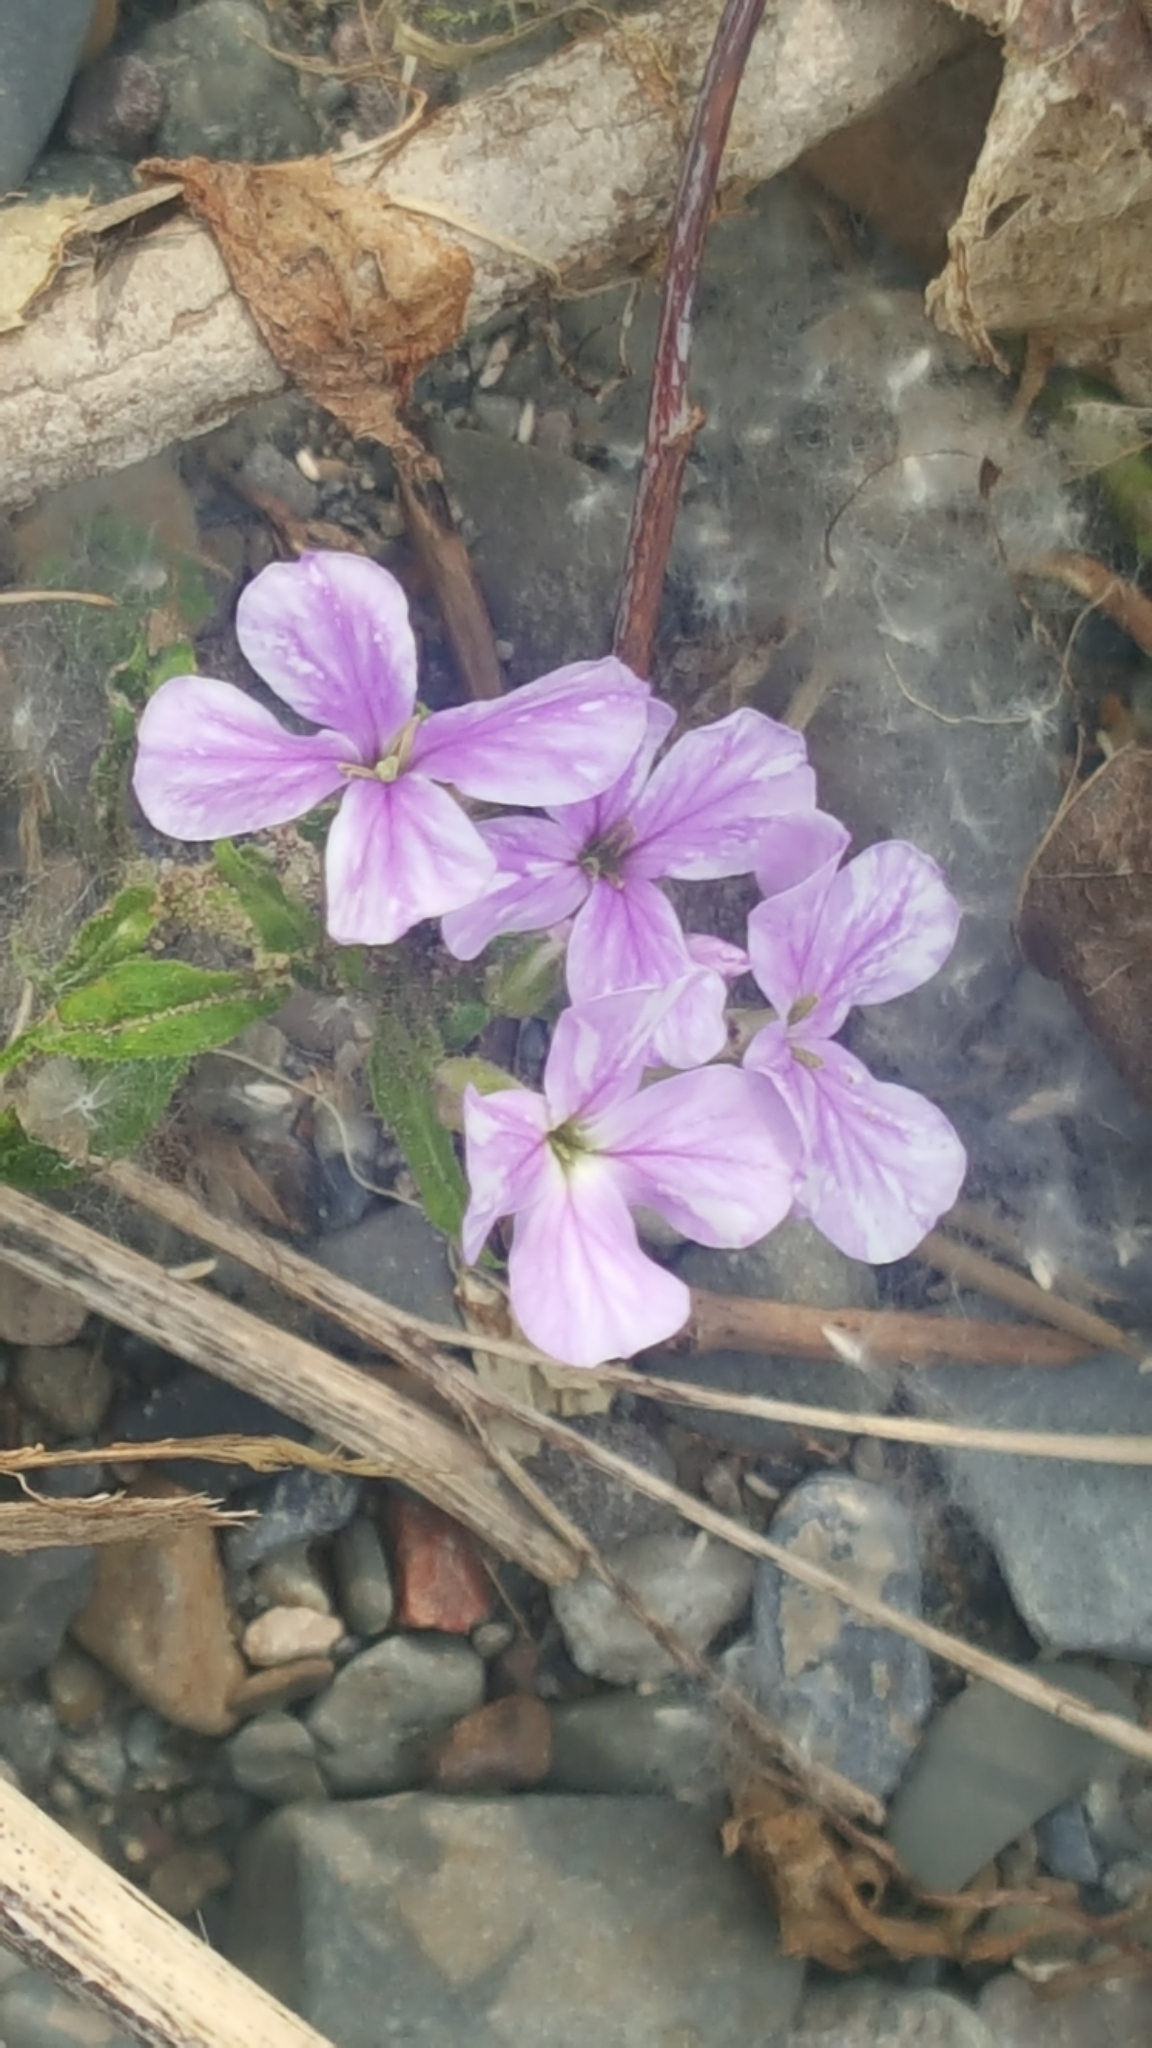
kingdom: Plantae
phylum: Tracheophyta
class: Magnoliopsida
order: Brassicales
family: Brassicaceae
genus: Hesperis
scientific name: Hesperis matronalis
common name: Dame's-violet
